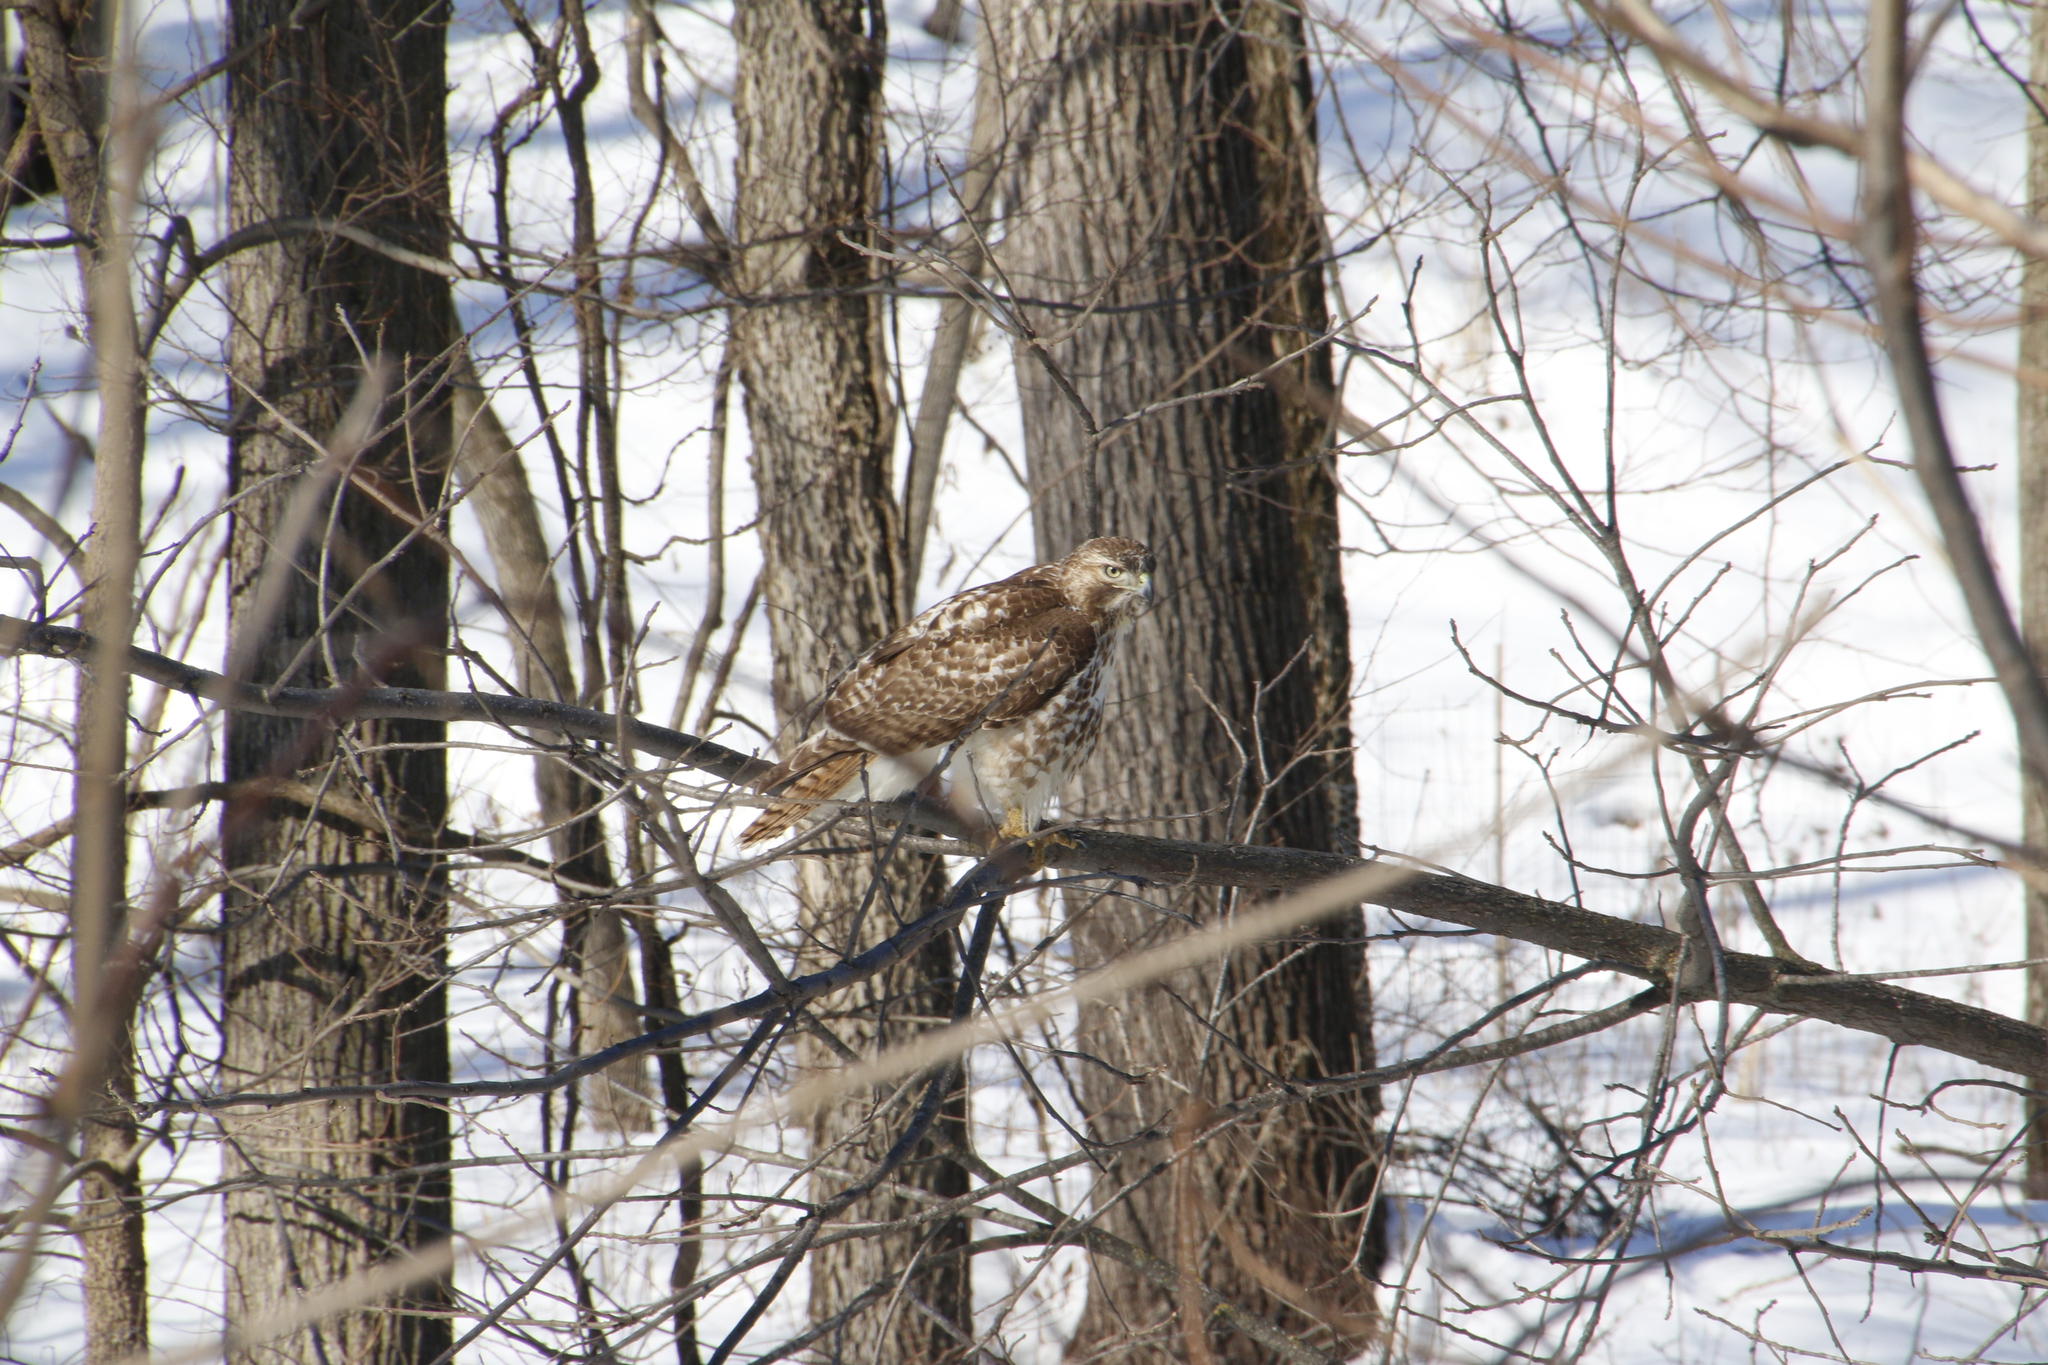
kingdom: Animalia
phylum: Chordata
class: Aves
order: Accipitriformes
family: Accipitridae
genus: Buteo
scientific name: Buteo jamaicensis
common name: Red-tailed hawk
